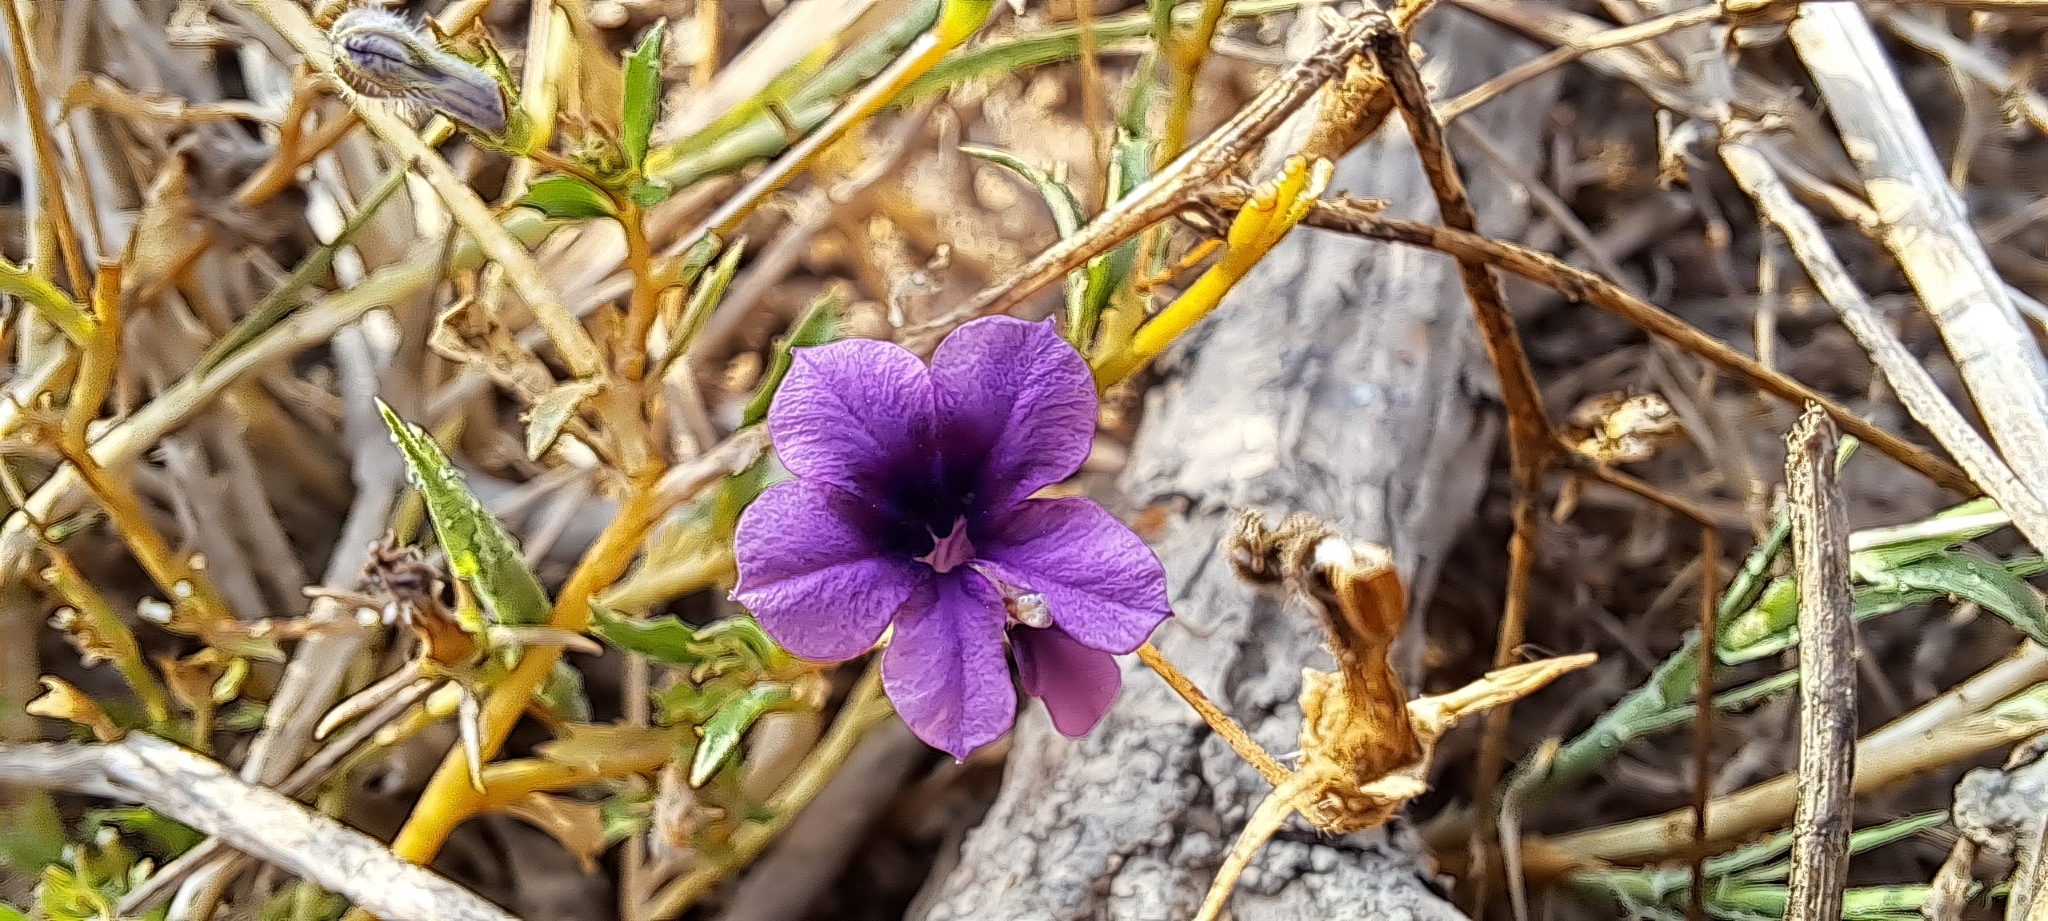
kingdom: Plantae
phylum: Tracheophyta
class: Magnoliopsida
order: Asterales
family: Campanulaceae
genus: Monopsis
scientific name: Monopsis debilis
